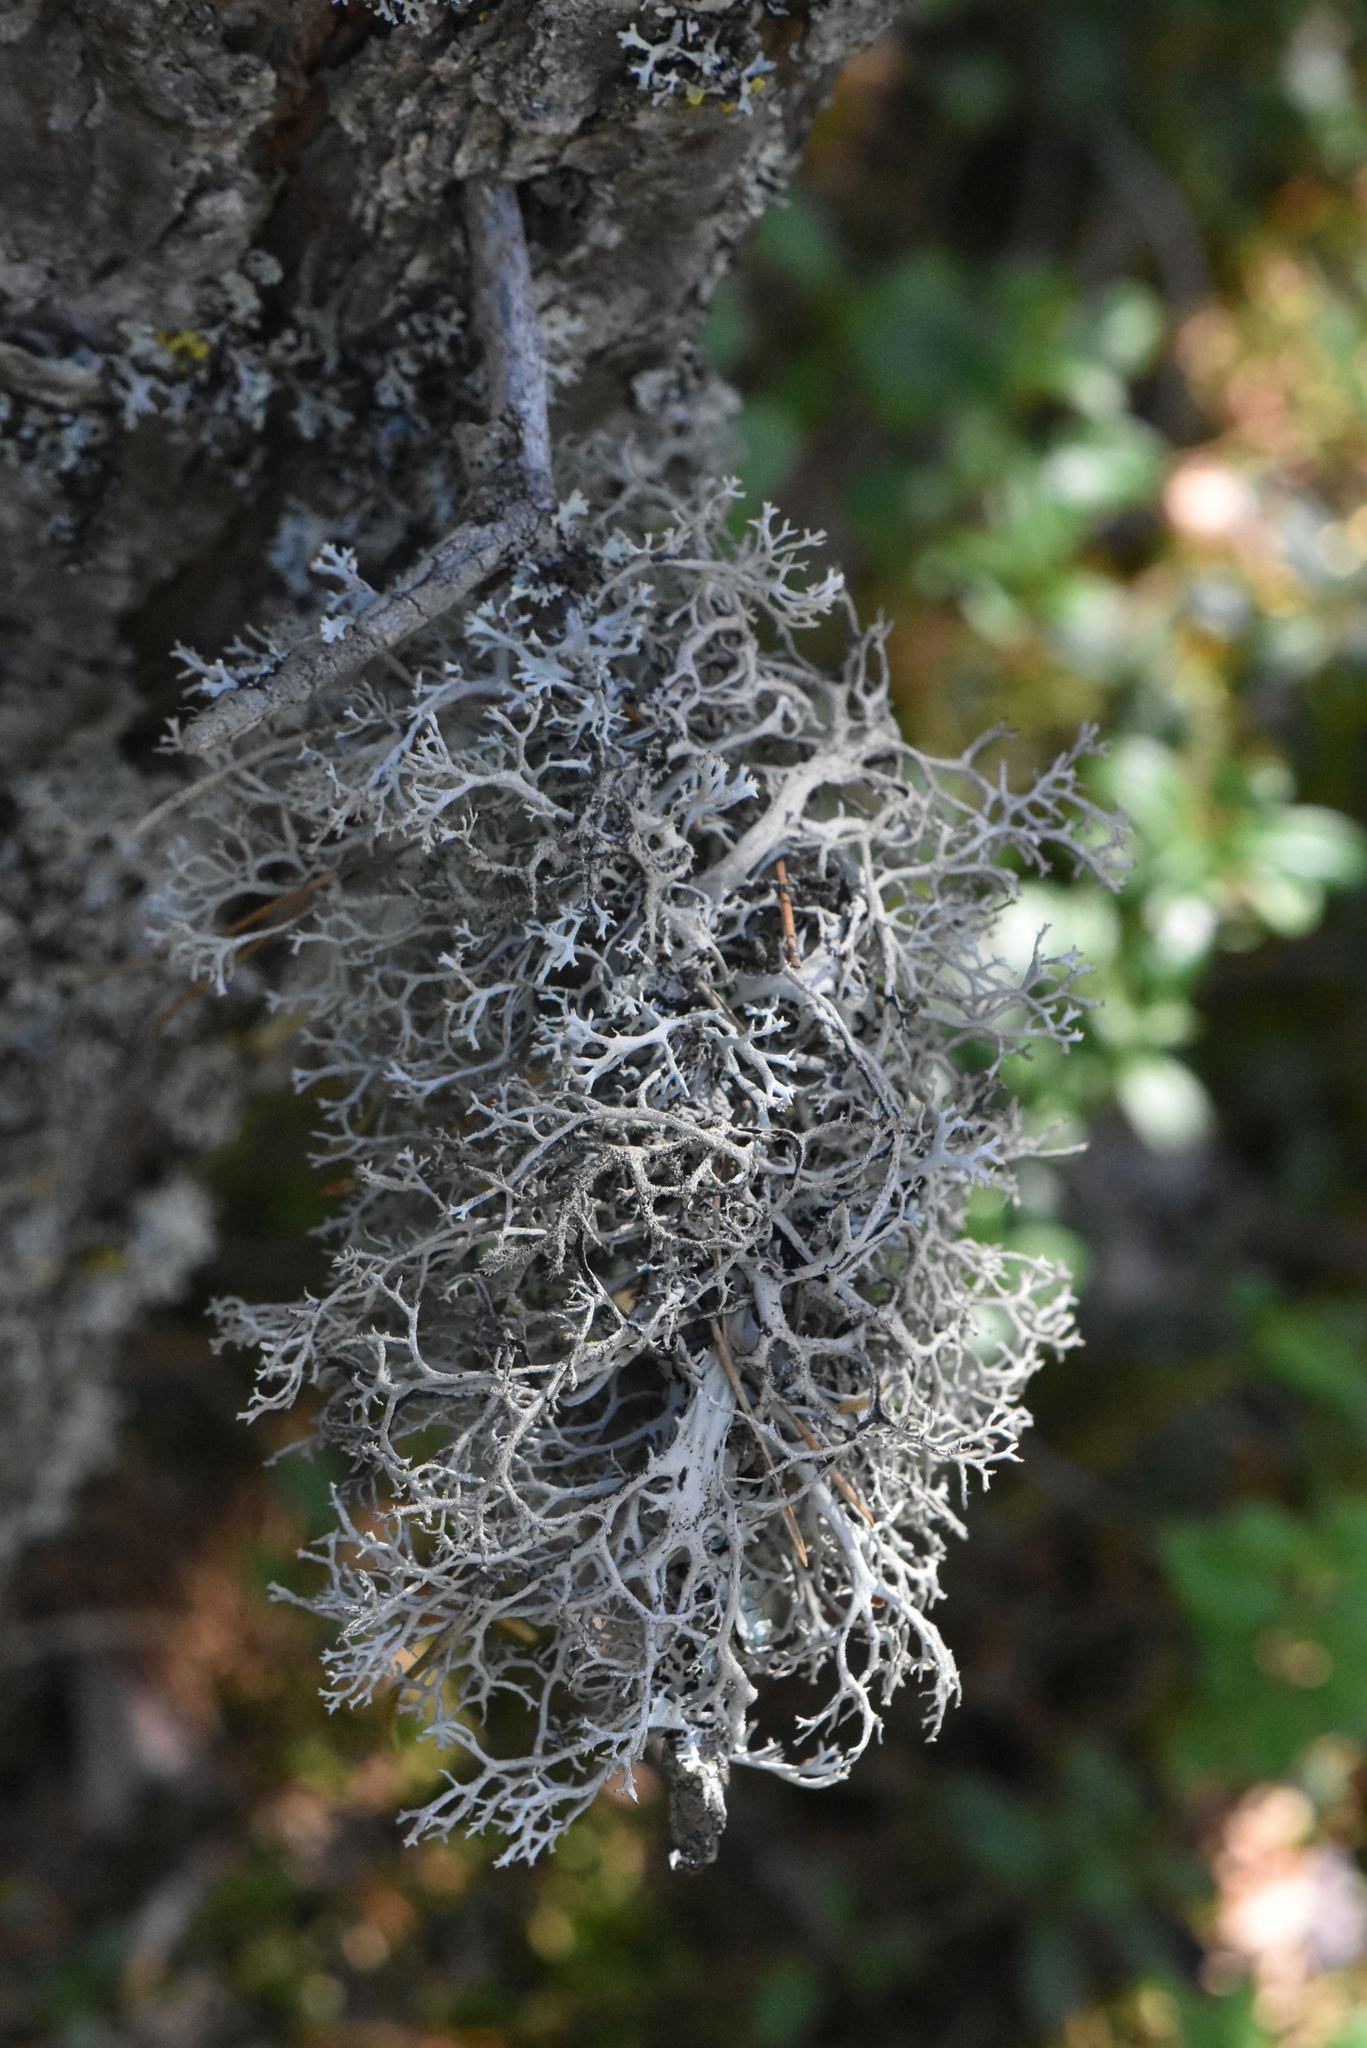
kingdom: Fungi
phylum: Ascomycota
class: Lecanoromycetes
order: Lecanorales
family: Parmeliaceae
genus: Pseudevernia
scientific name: Pseudevernia furfuracea
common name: Tree moss
